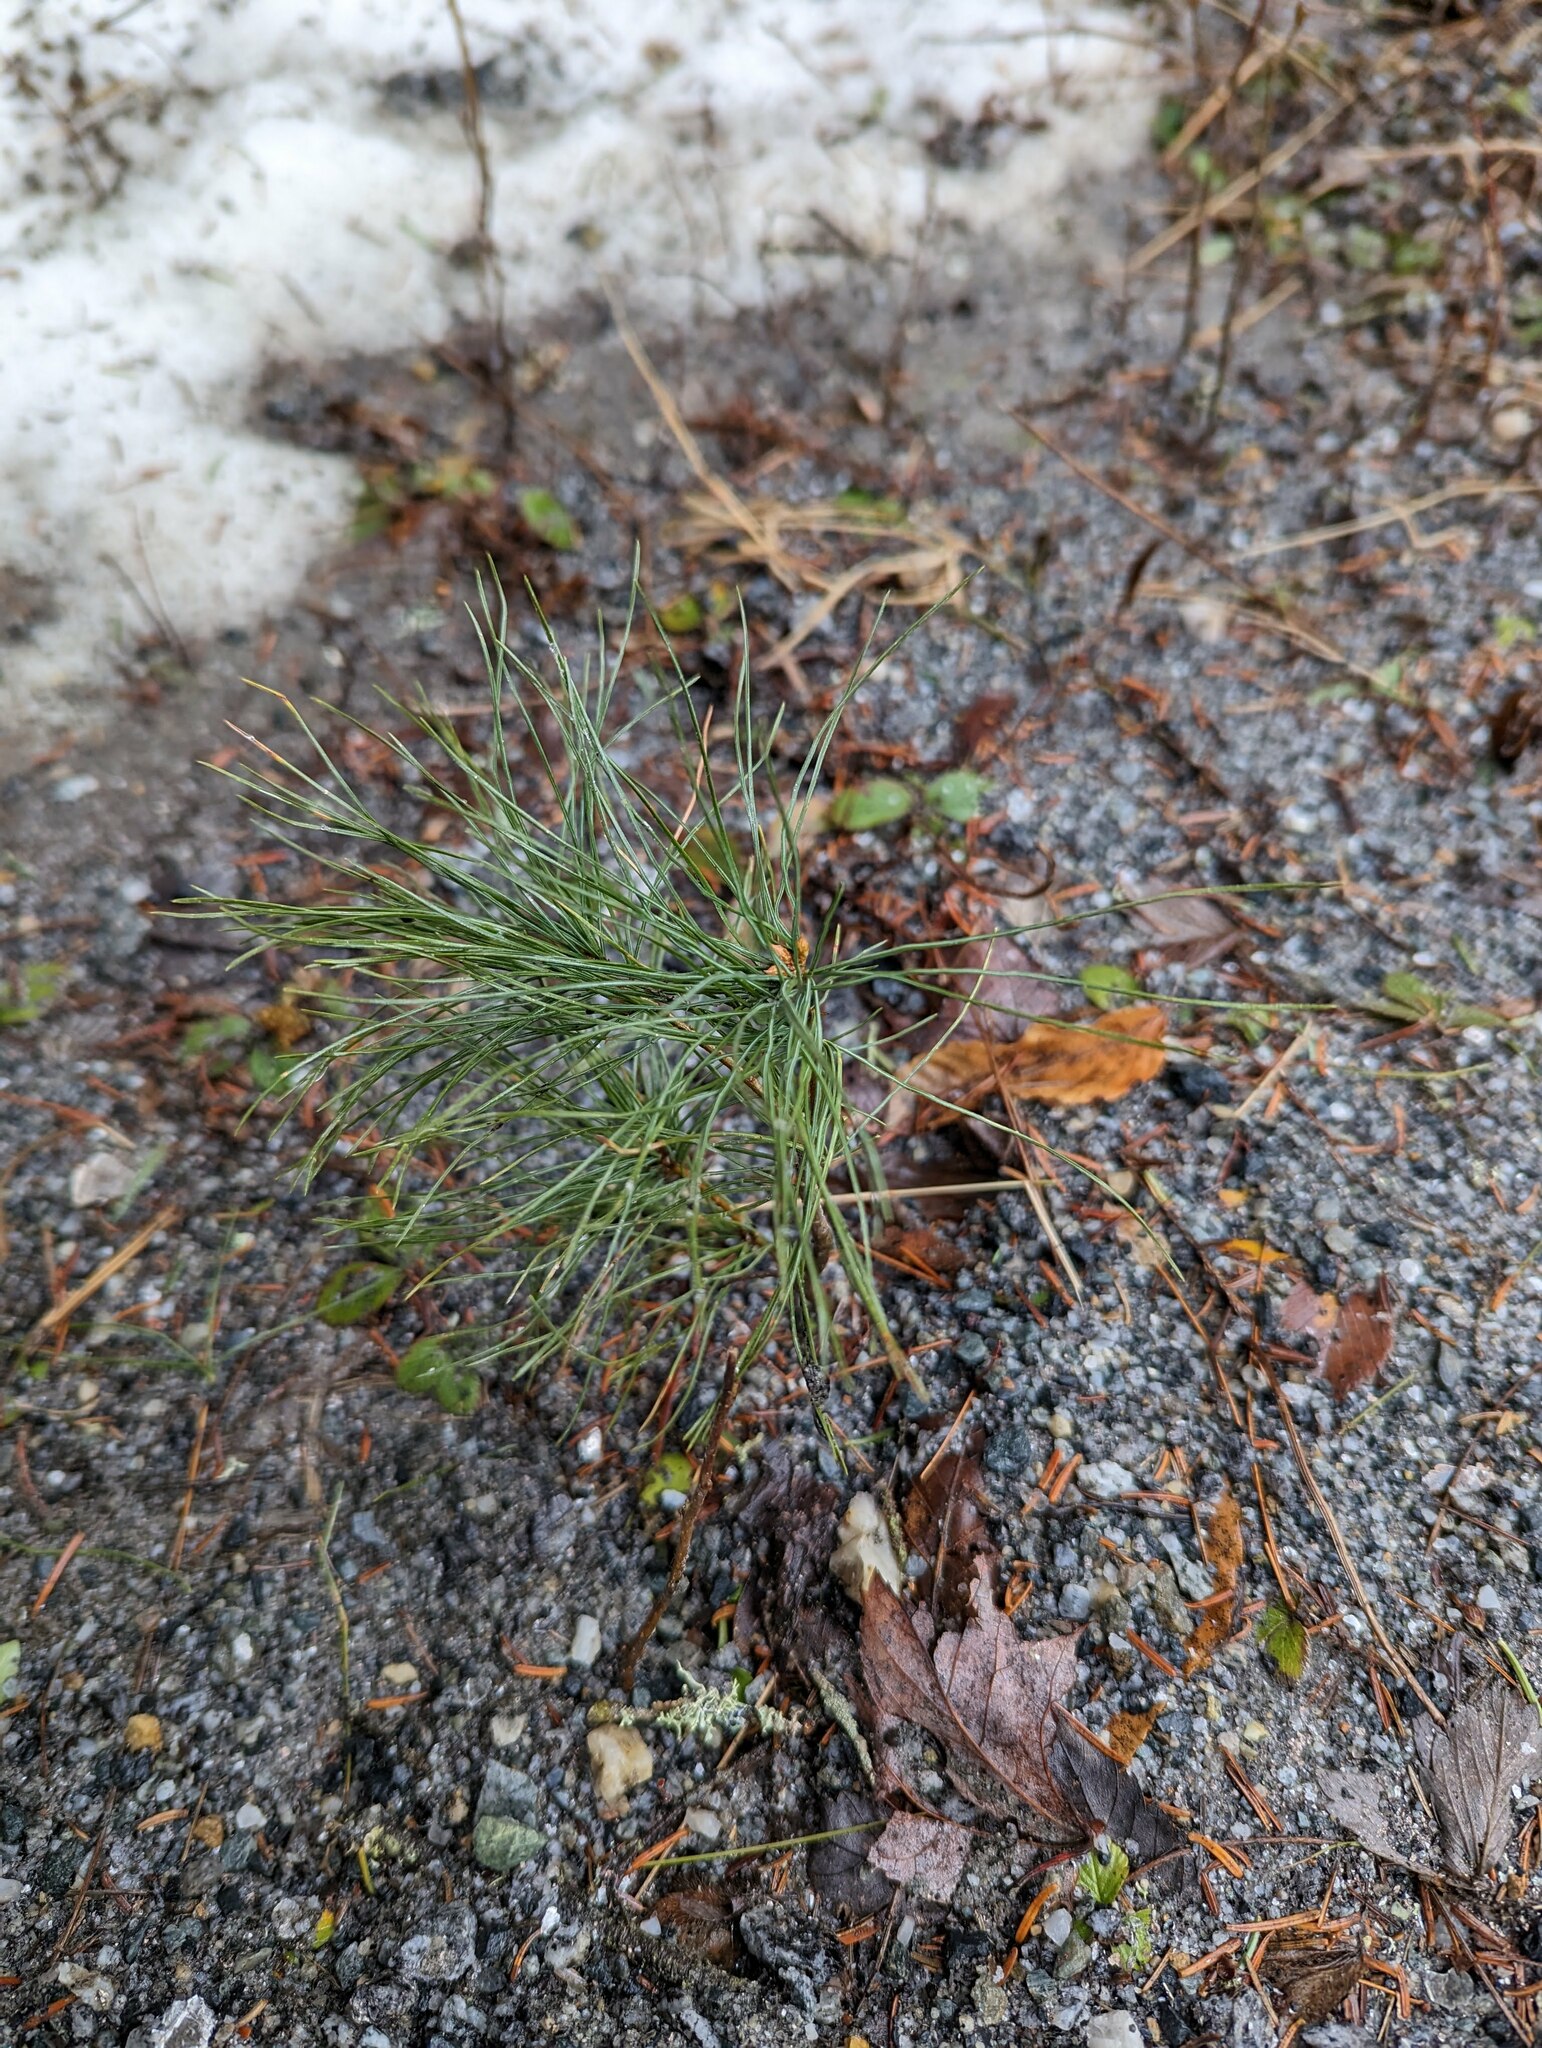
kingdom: Plantae
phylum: Tracheophyta
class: Pinopsida
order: Pinales
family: Pinaceae
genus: Pinus
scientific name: Pinus strobus
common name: Weymouth pine
